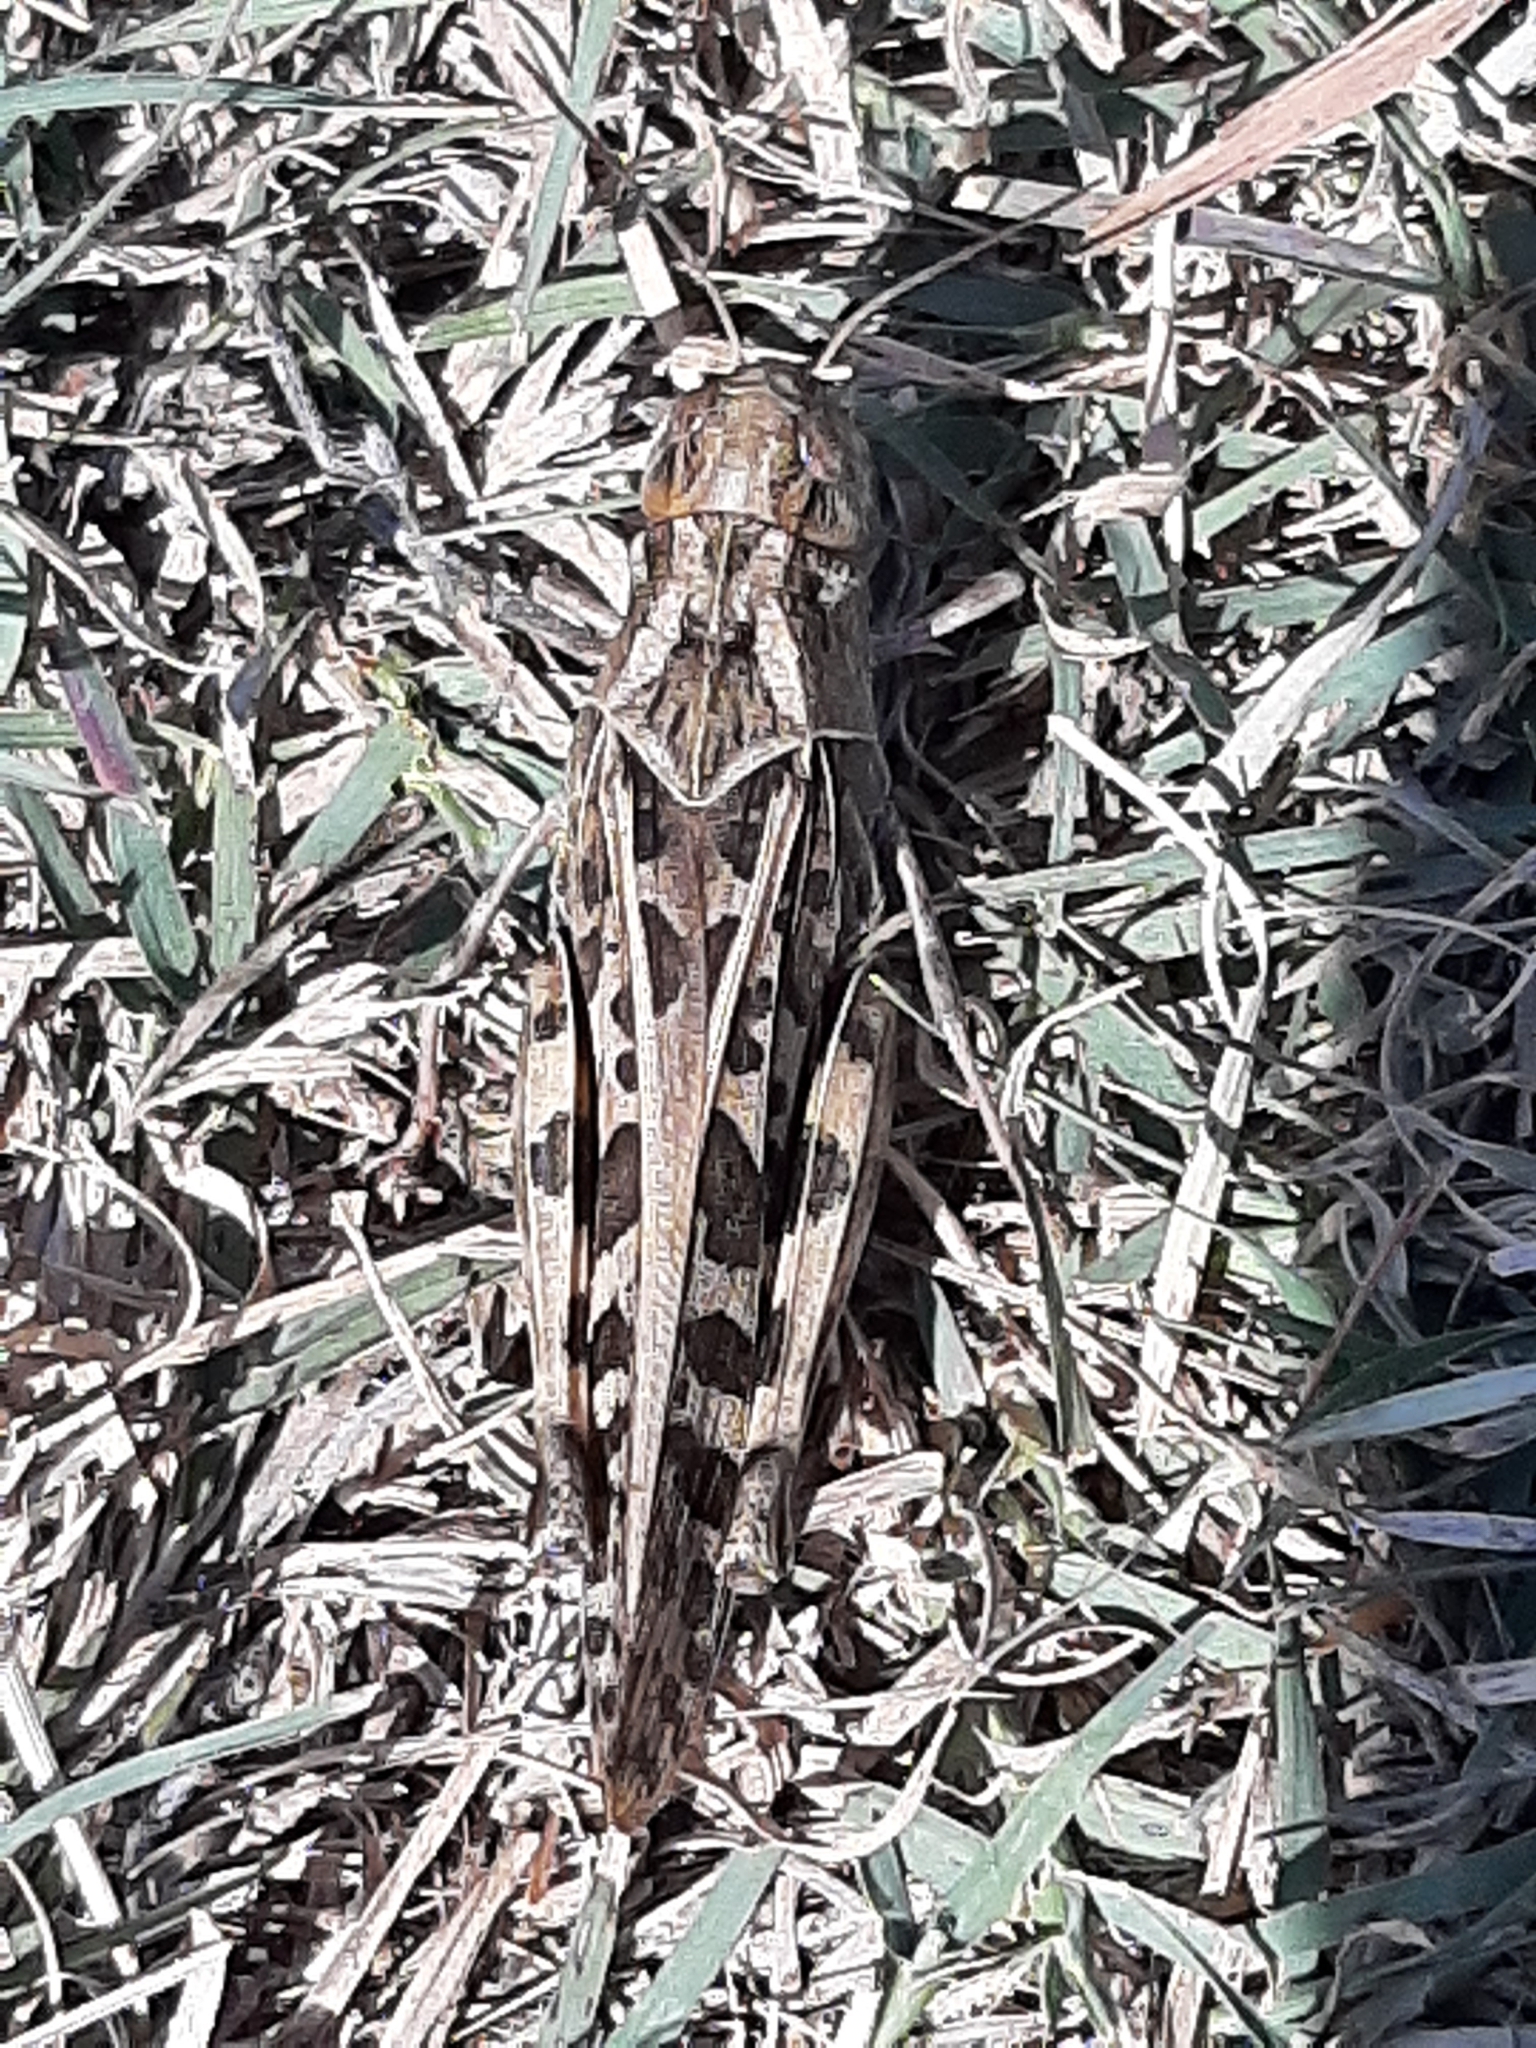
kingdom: Animalia
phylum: Arthropoda
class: Insecta
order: Orthoptera
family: Acrididae
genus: Hippiscus
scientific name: Hippiscus ocelote
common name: Wrinkled grasshopper
